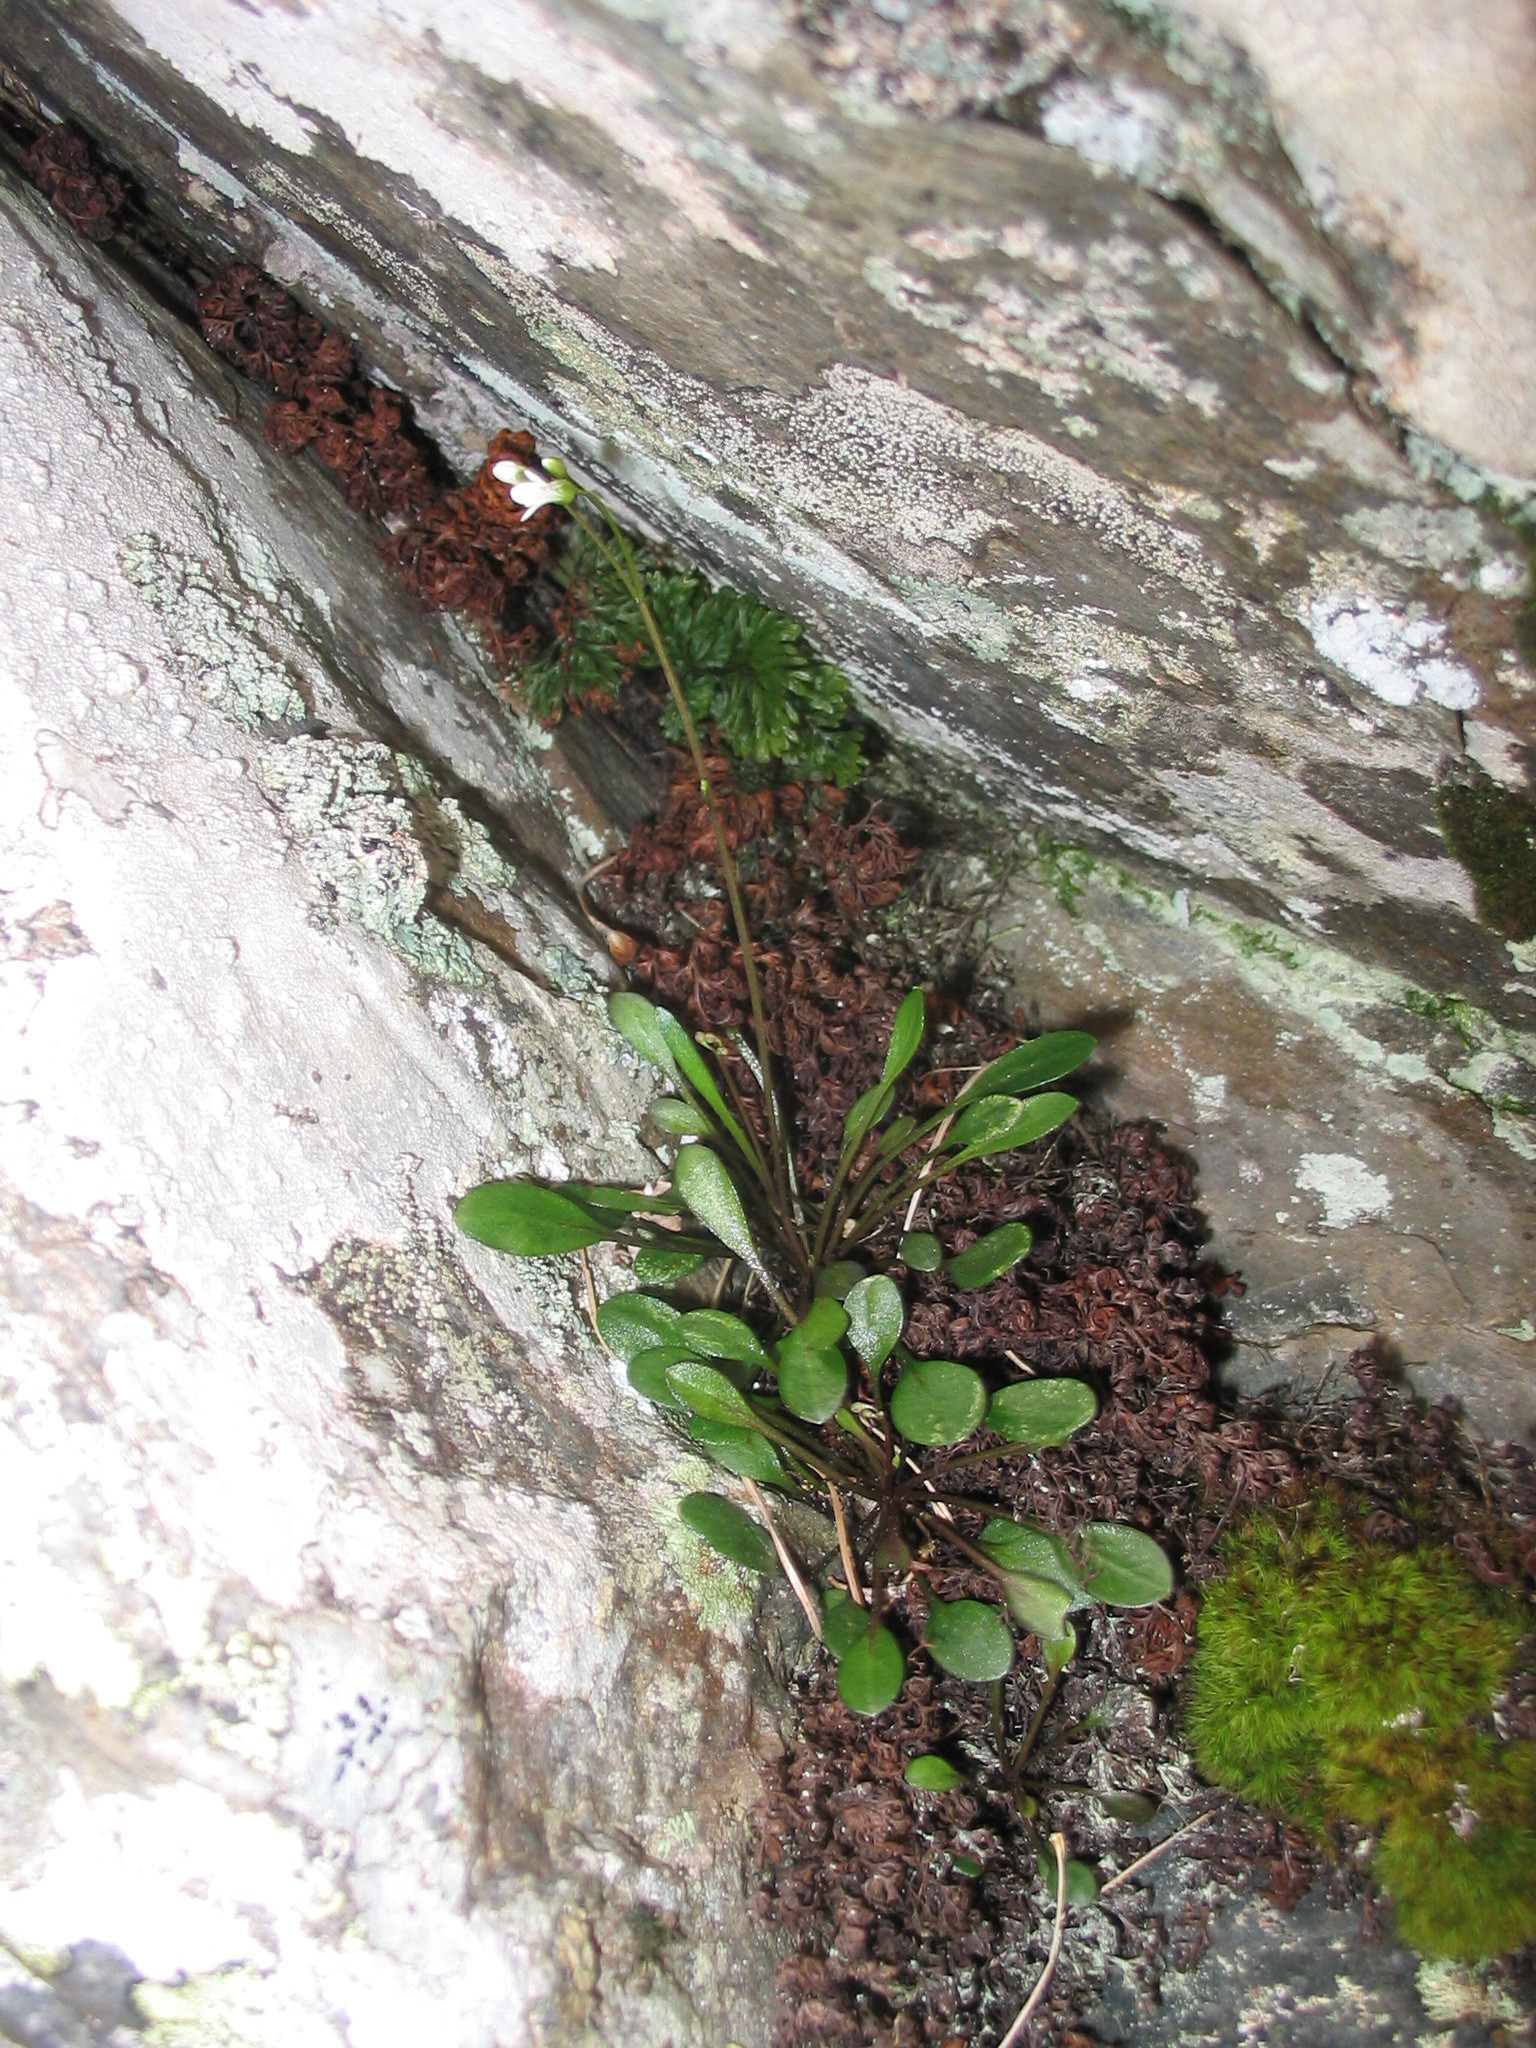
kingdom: Plantae
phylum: Tracheophyta
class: Magnoliopsida
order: Brassicales
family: Brassicaceae
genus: Cardamine
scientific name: Cardamine dimidia
